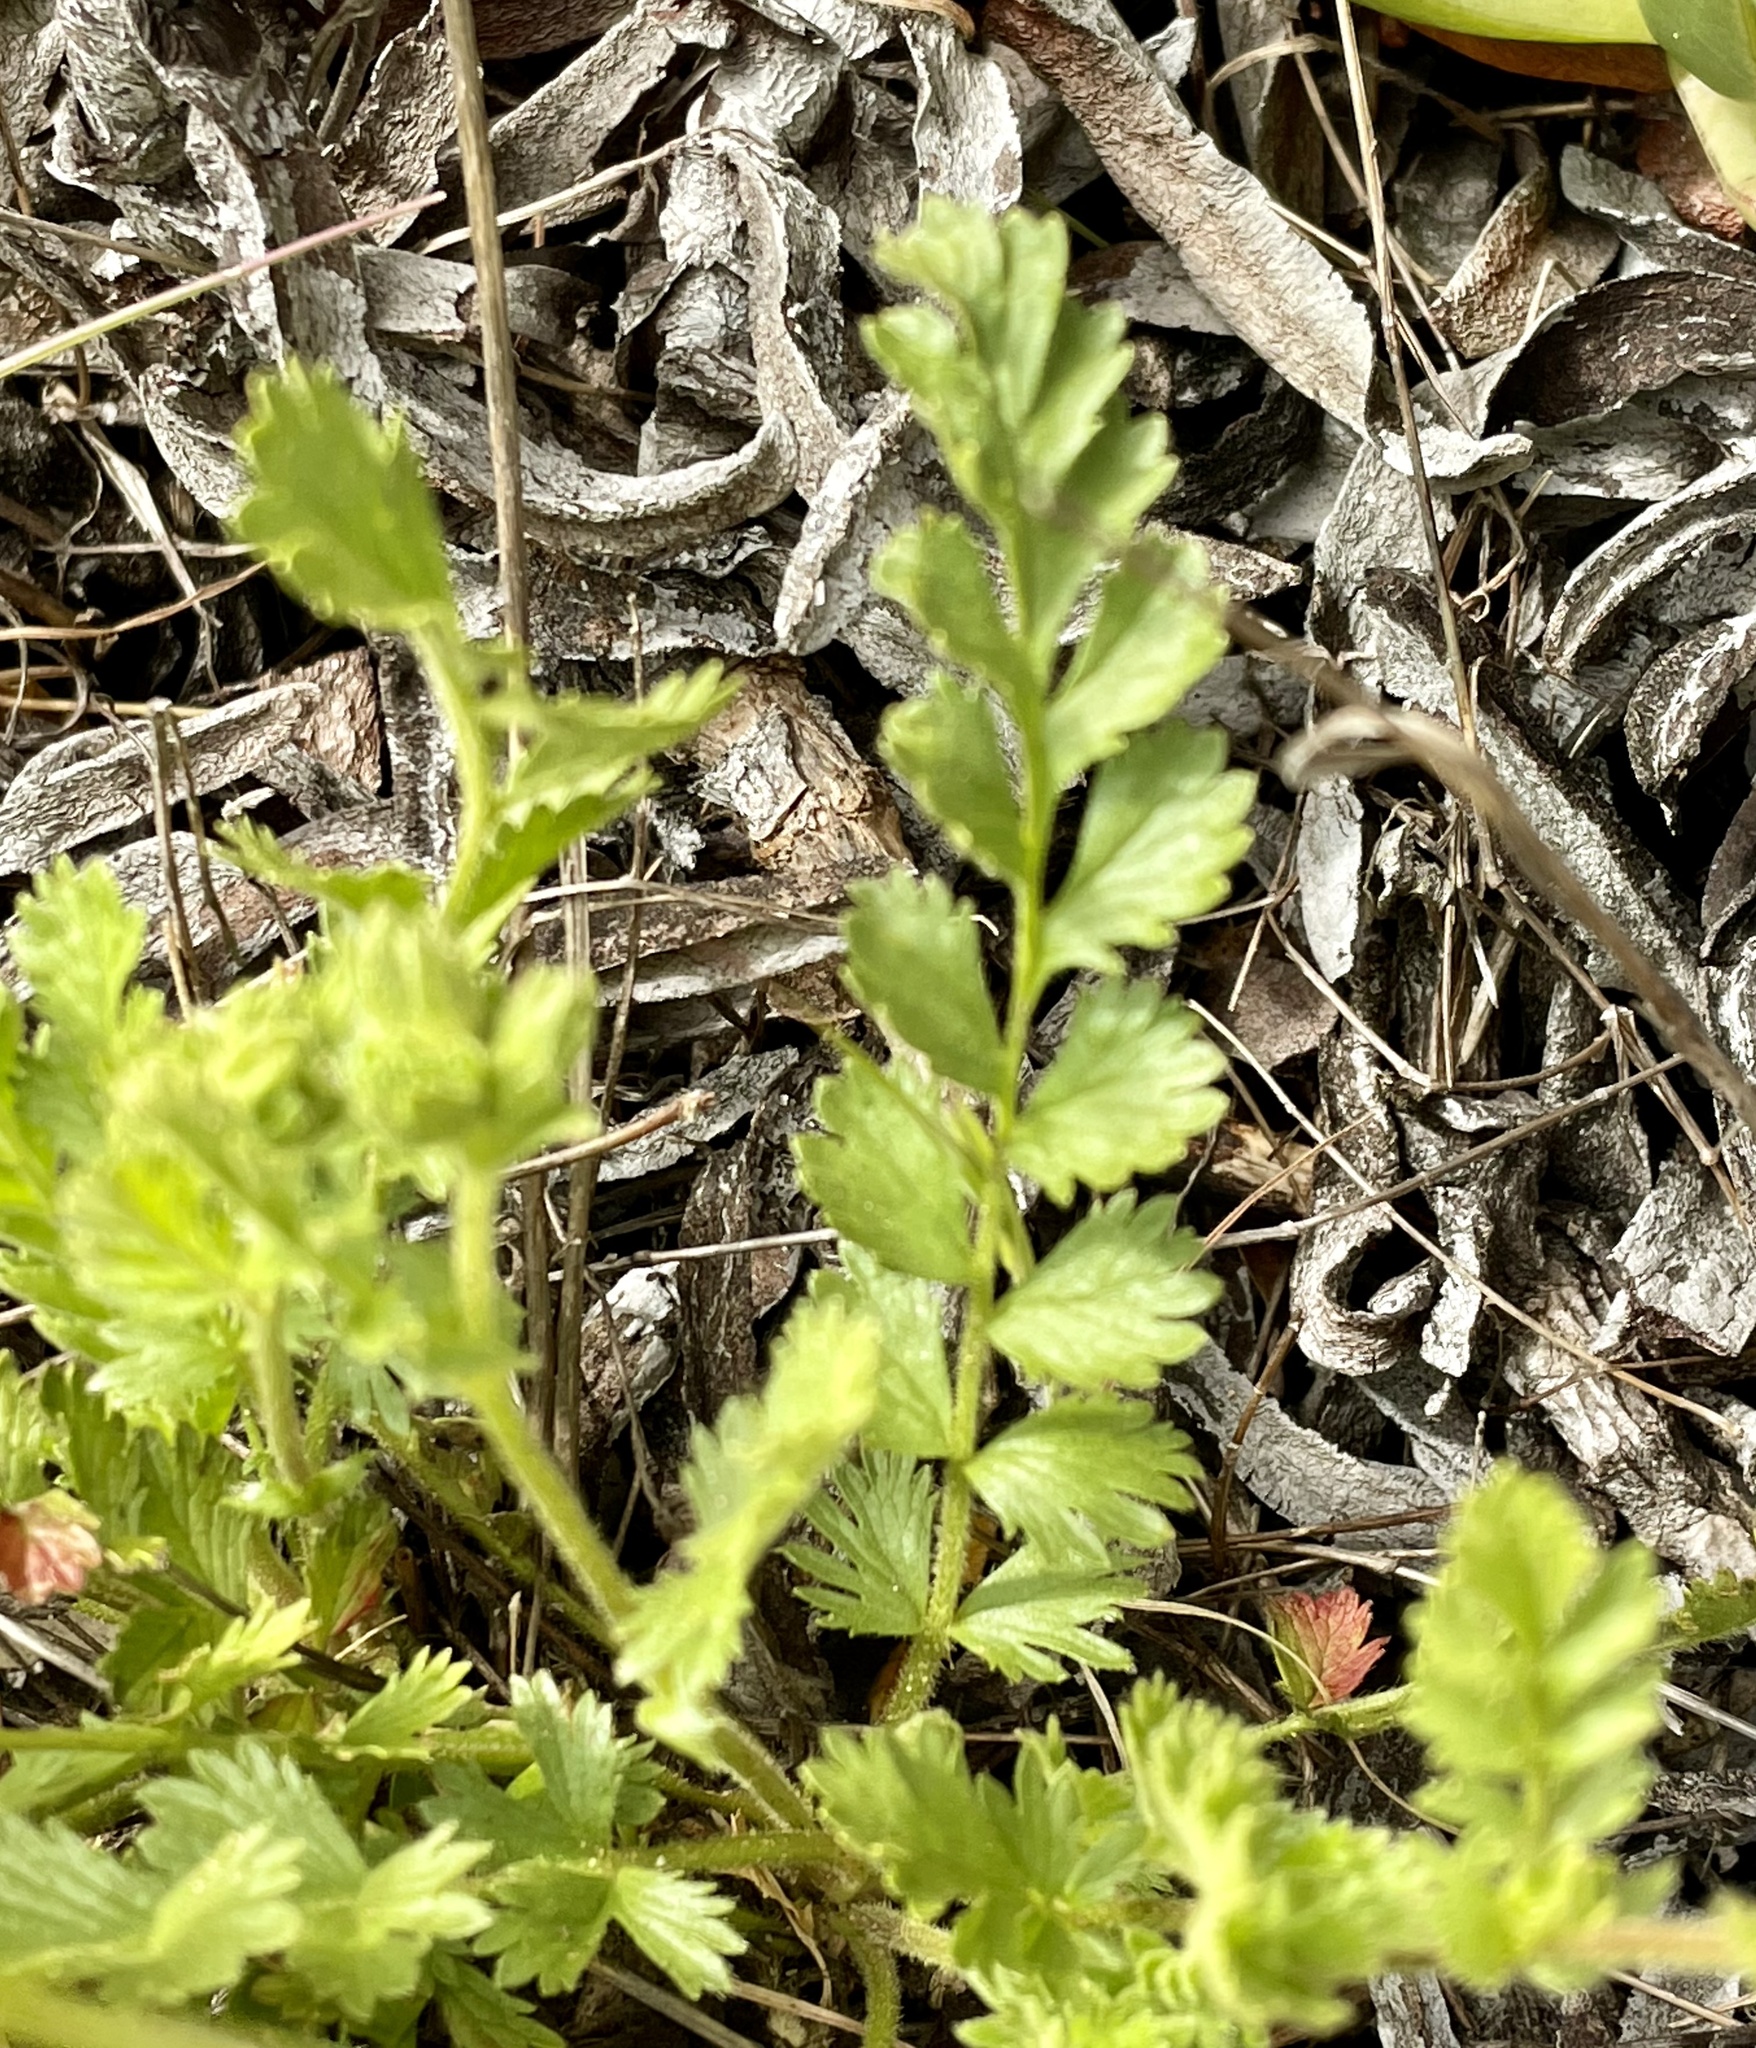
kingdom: Plantae
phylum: Tracheophyta
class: Magnoliopsida
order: Rosales
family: Rosaceae
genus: Potentilla
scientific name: Potentilla
